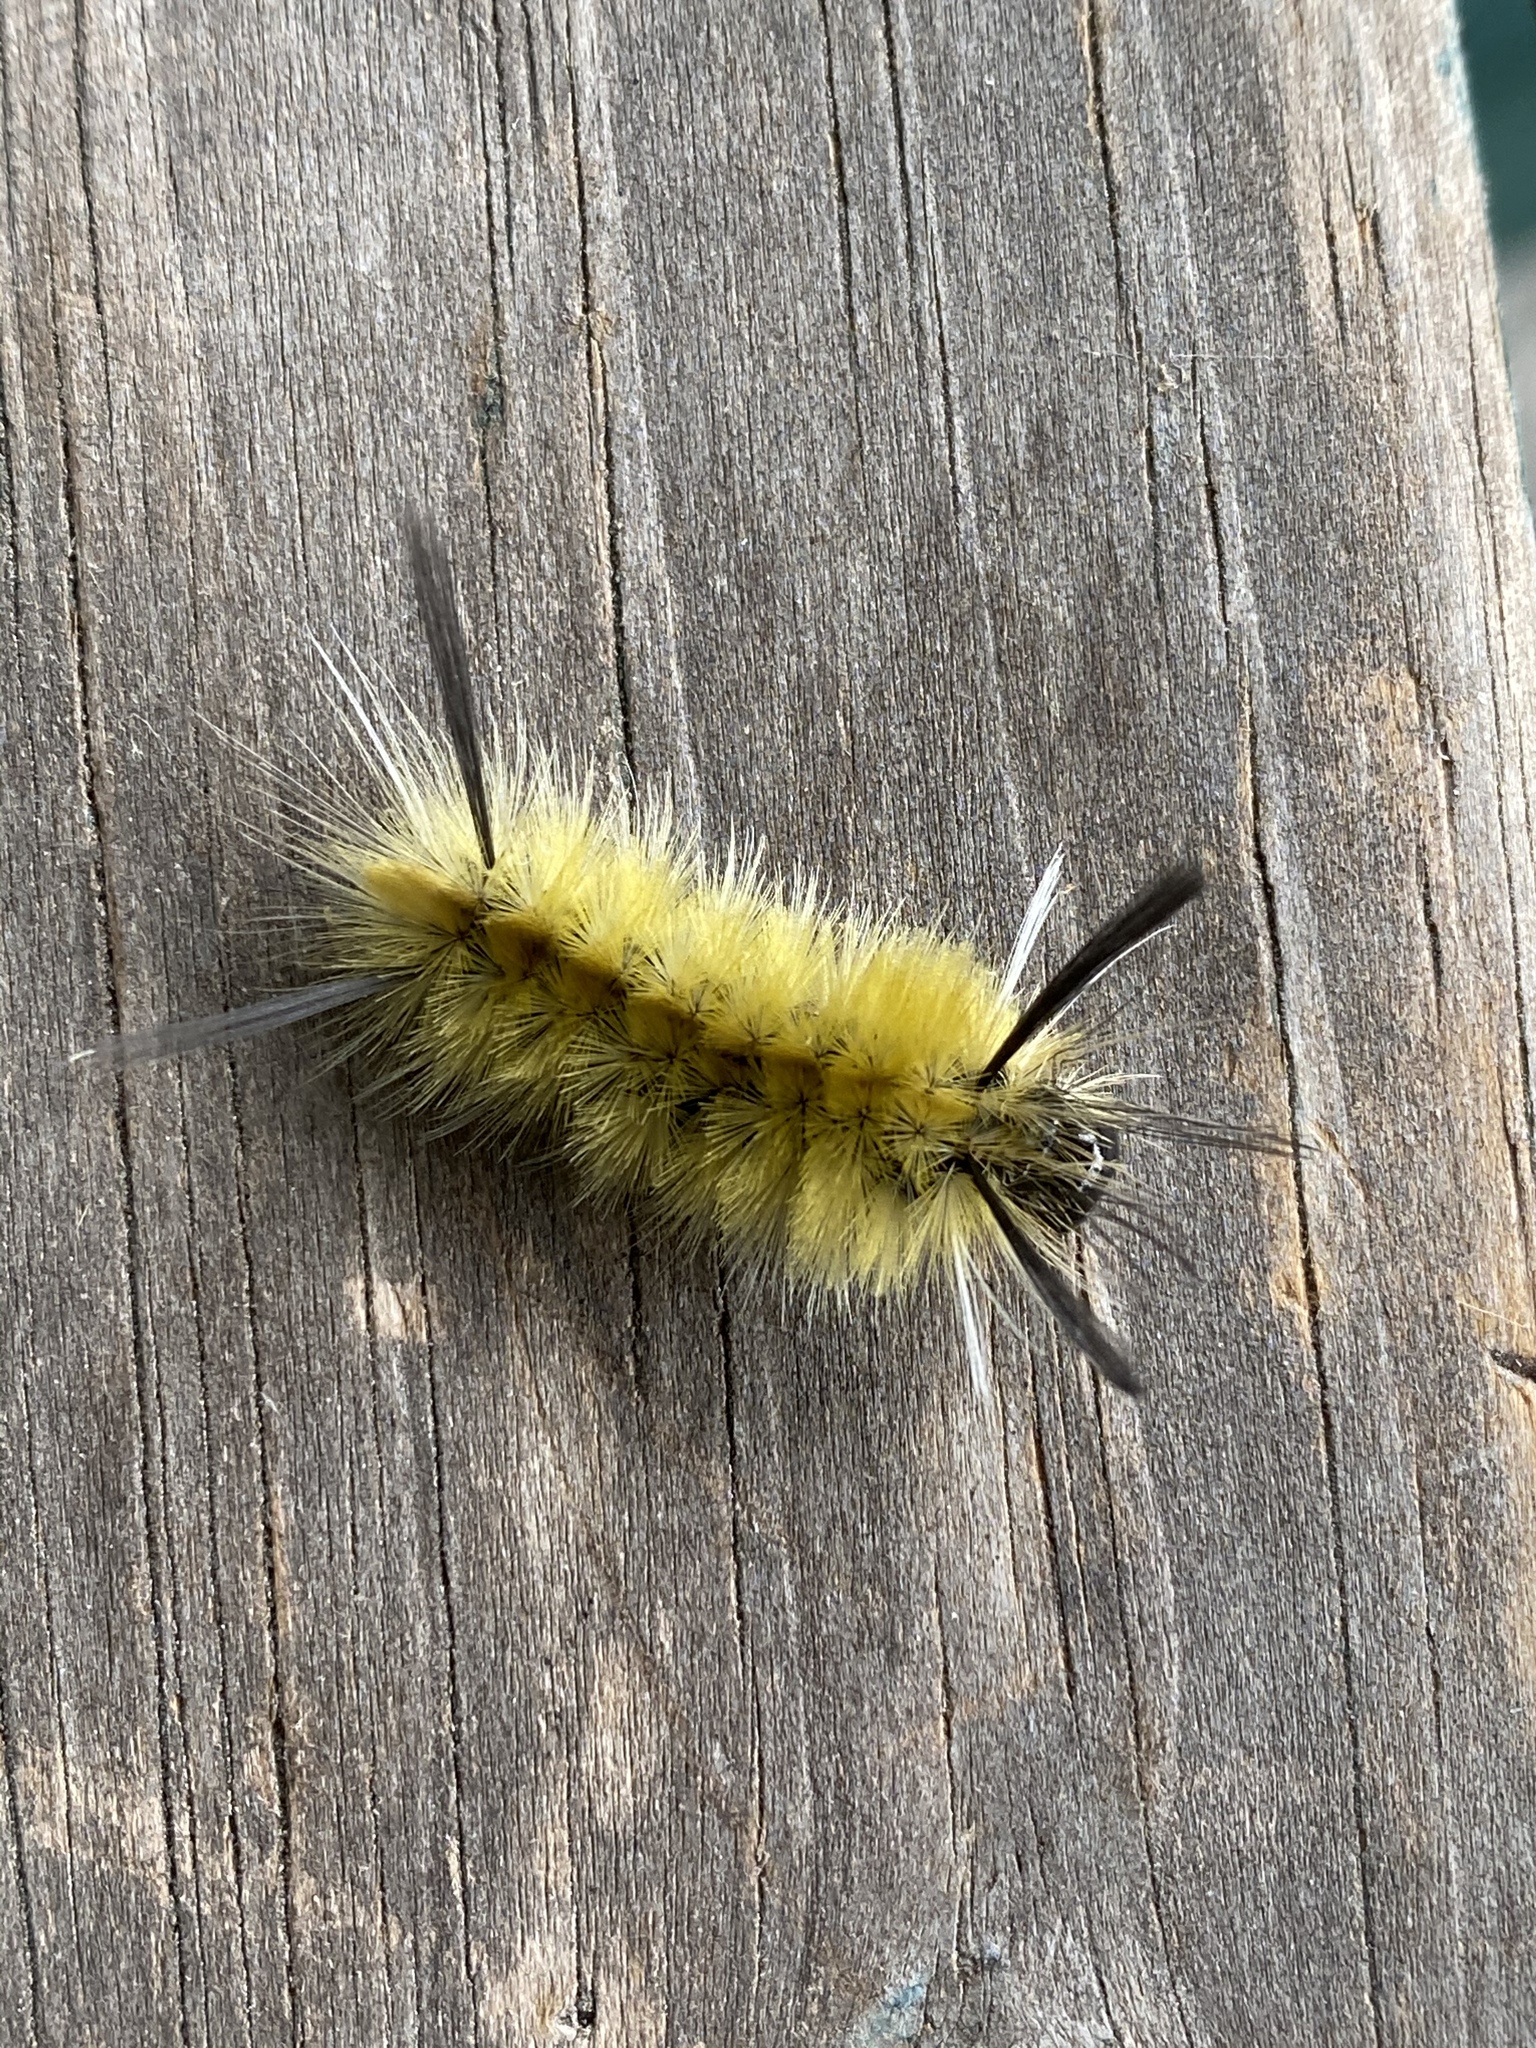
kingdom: Animalia
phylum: Arthropoda
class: Insecta
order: Lepidoptera
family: Erebidae
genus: Halysidota
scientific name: Halysidota tessellaris
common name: Banded tussock moth
